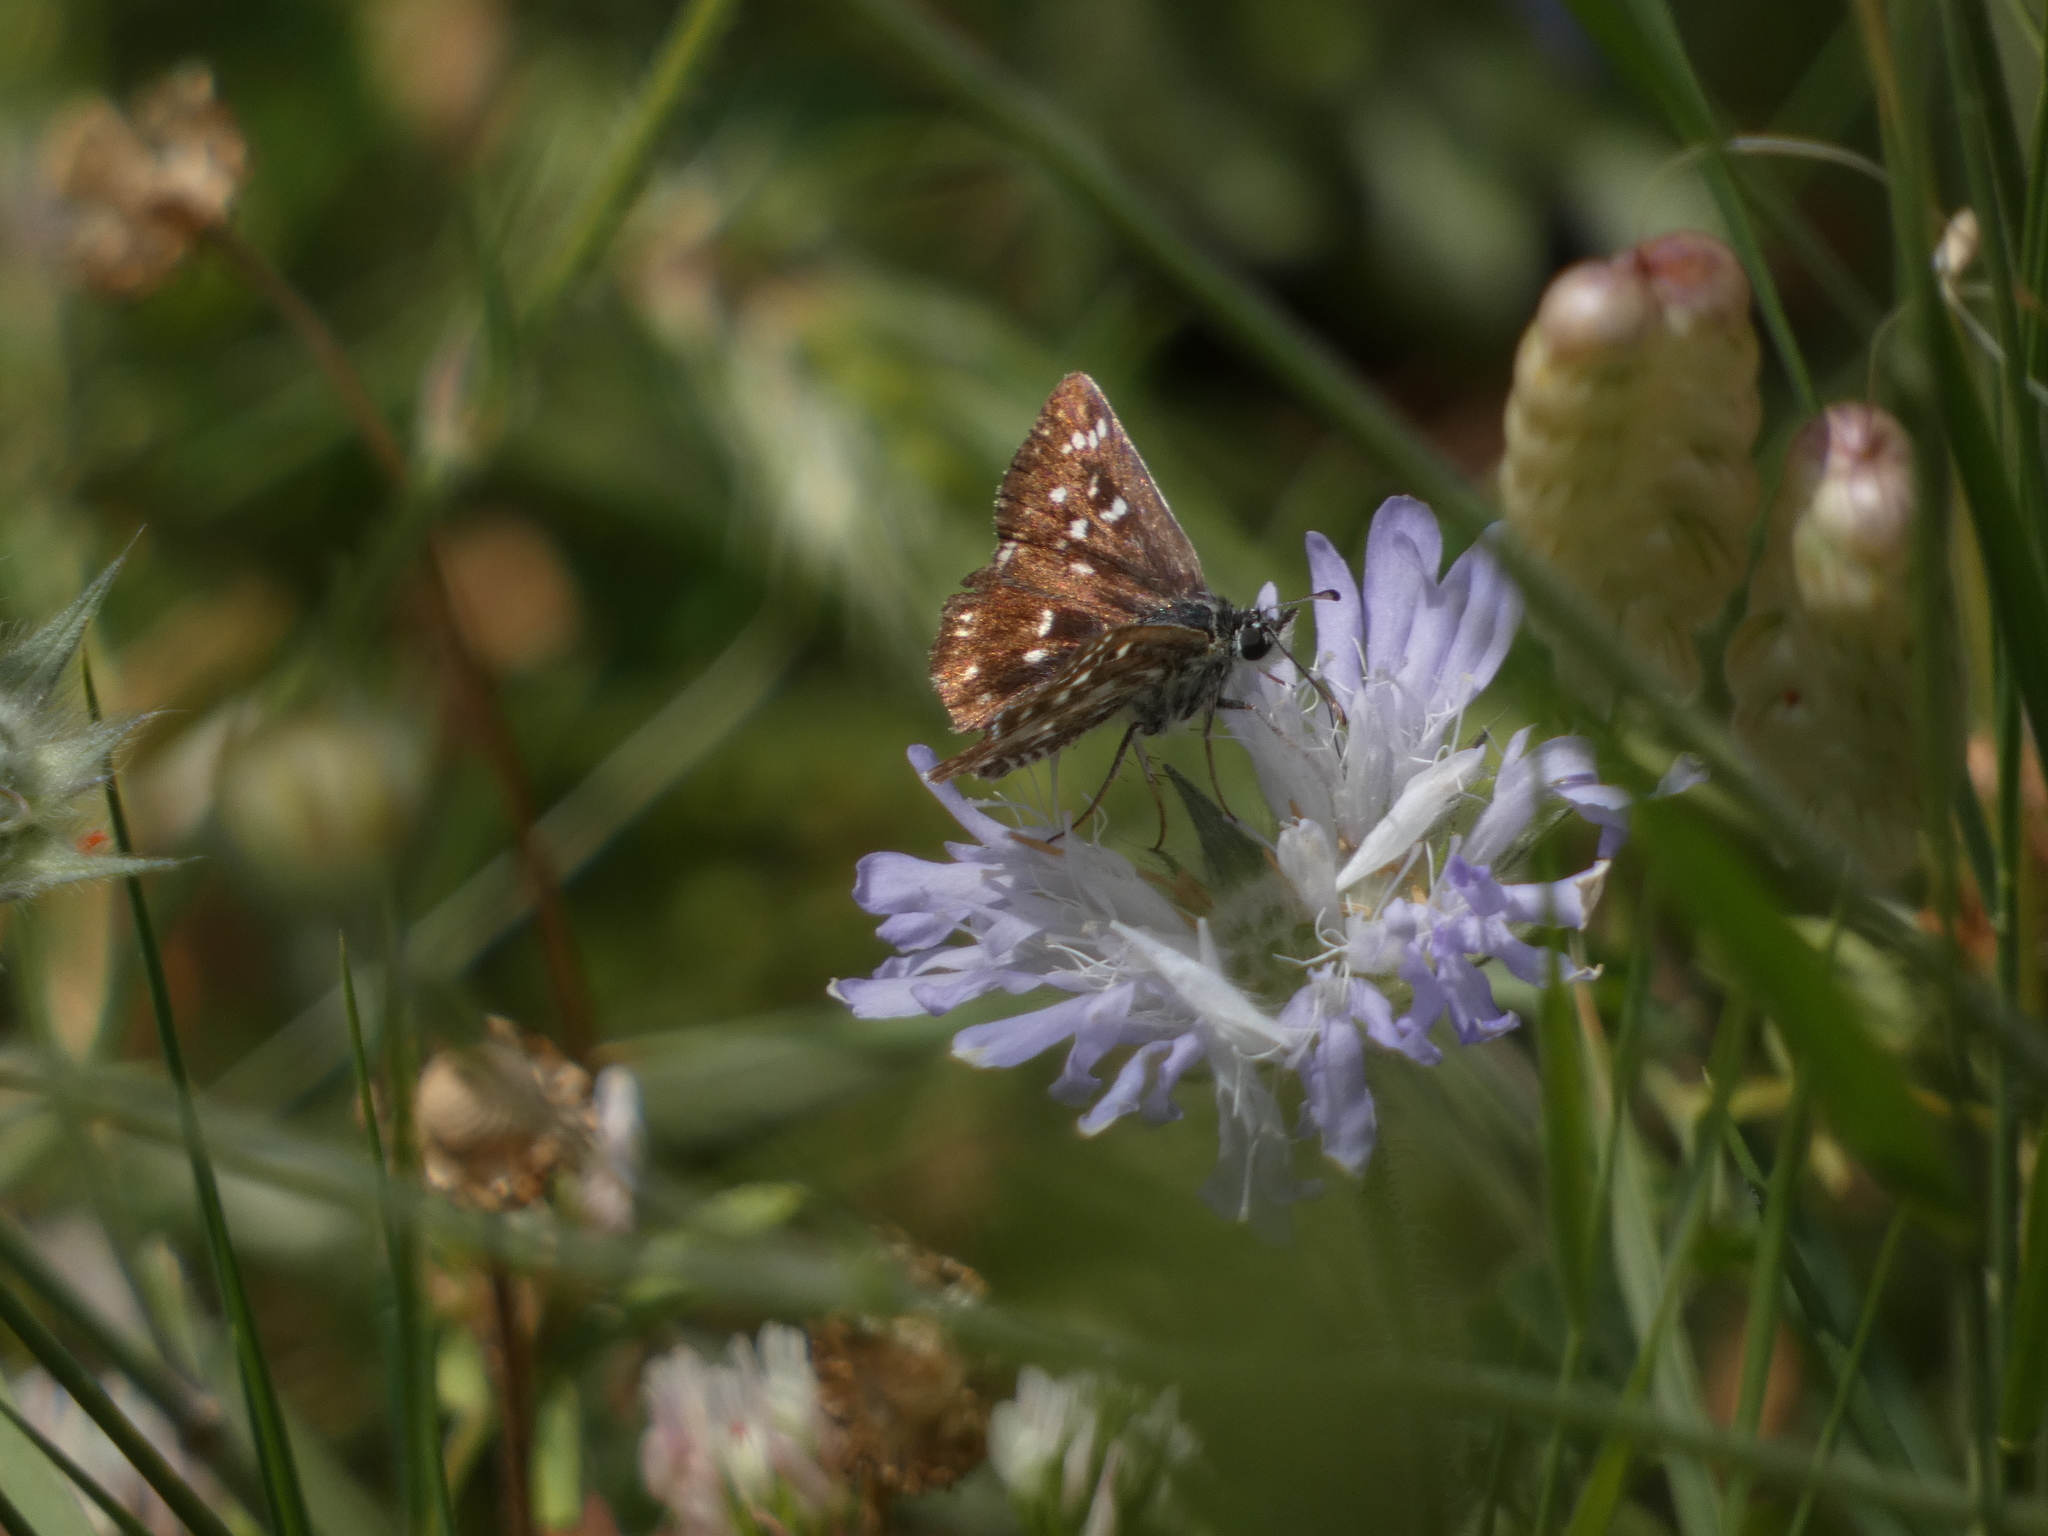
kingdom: Animalia
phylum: Arthropoda
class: Insecta
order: Lepidoptera
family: Hesperiidae
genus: Spialia
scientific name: Spialia sertorius
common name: Red underwing skipper
